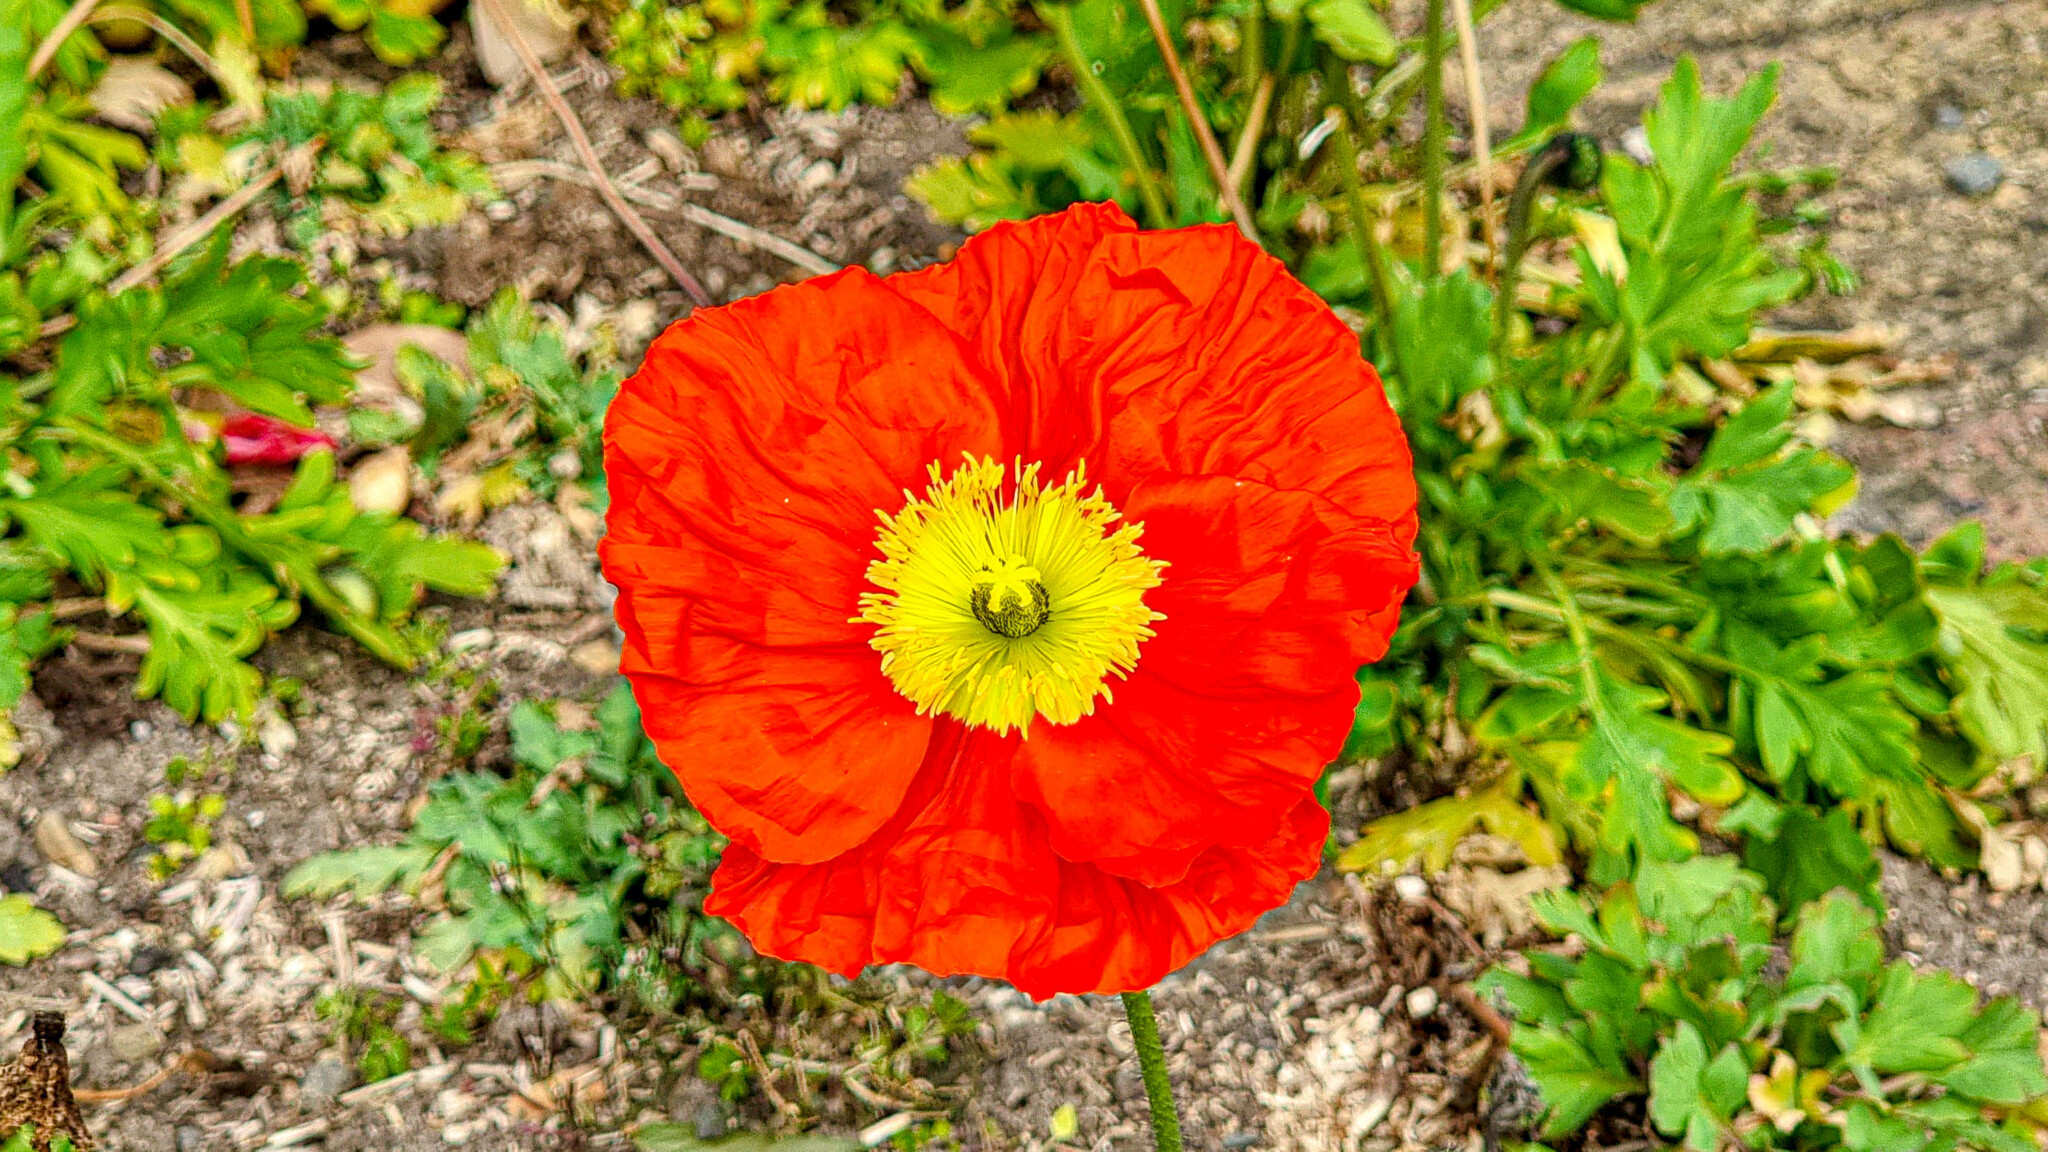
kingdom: Plantae
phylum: Tracheophyta
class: Magnoliopsida
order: Ranunculales
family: Papaveraceae
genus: Papaver
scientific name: Papaver nudicaule
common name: Arctic poppy
